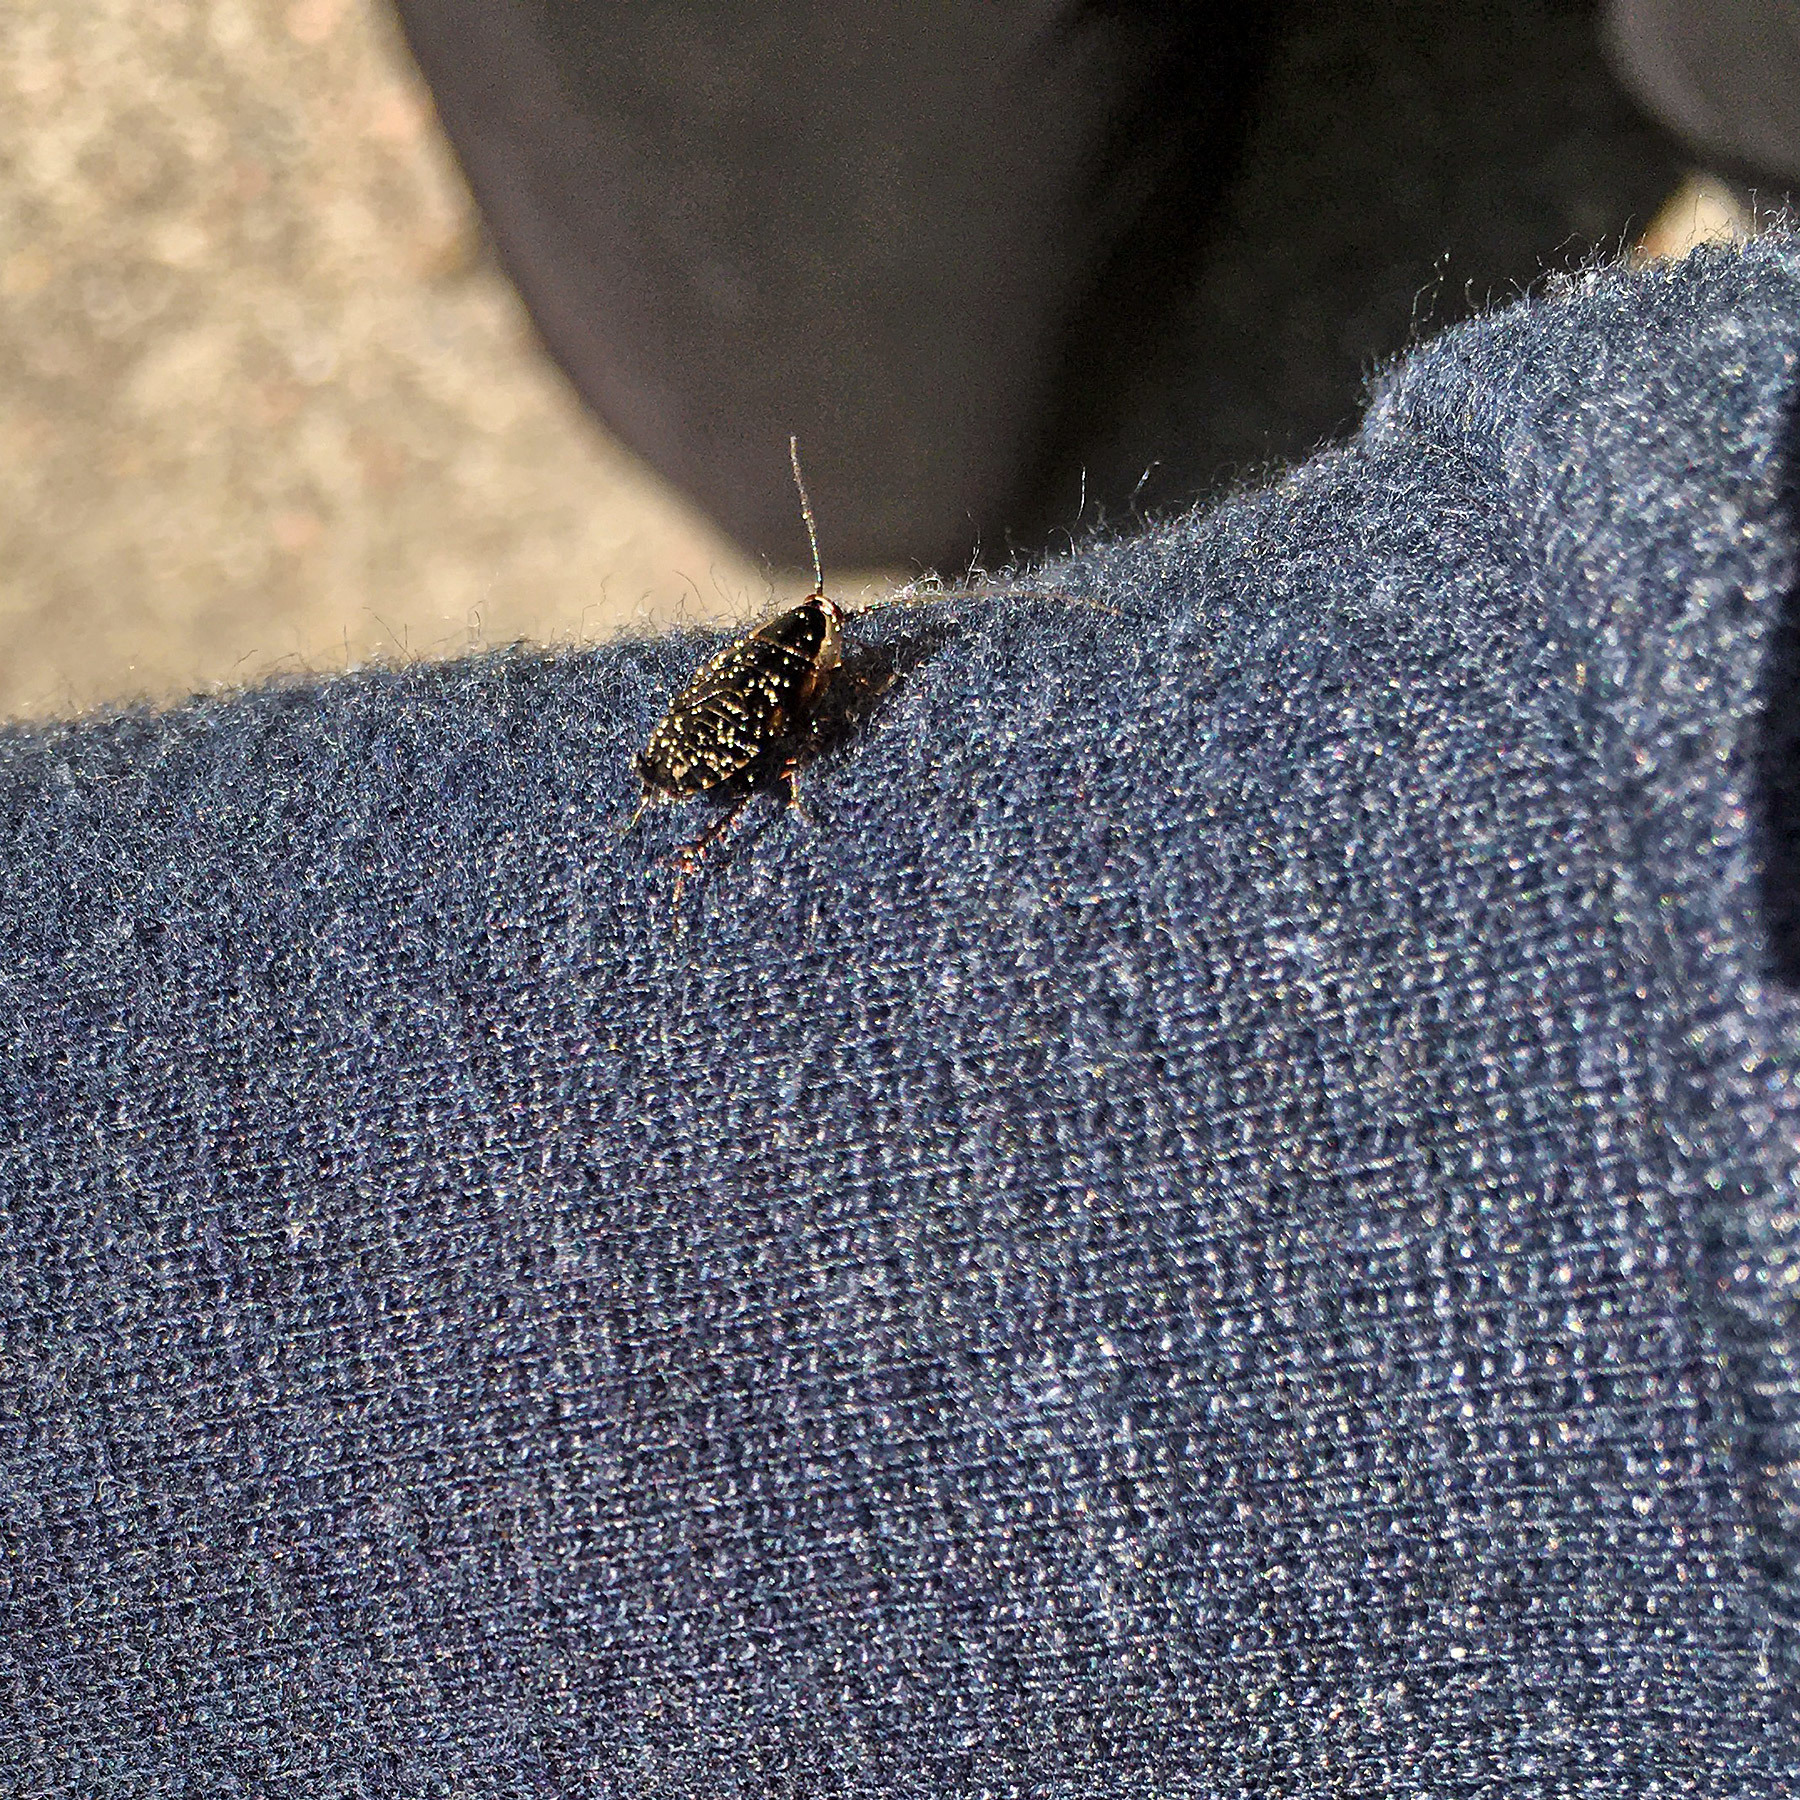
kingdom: Animalia
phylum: Arthropoda
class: Insecta
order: Blattodea
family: Ectobiidae
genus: Ectobius
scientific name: Ectobius sylvestris
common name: Forest cockroach
